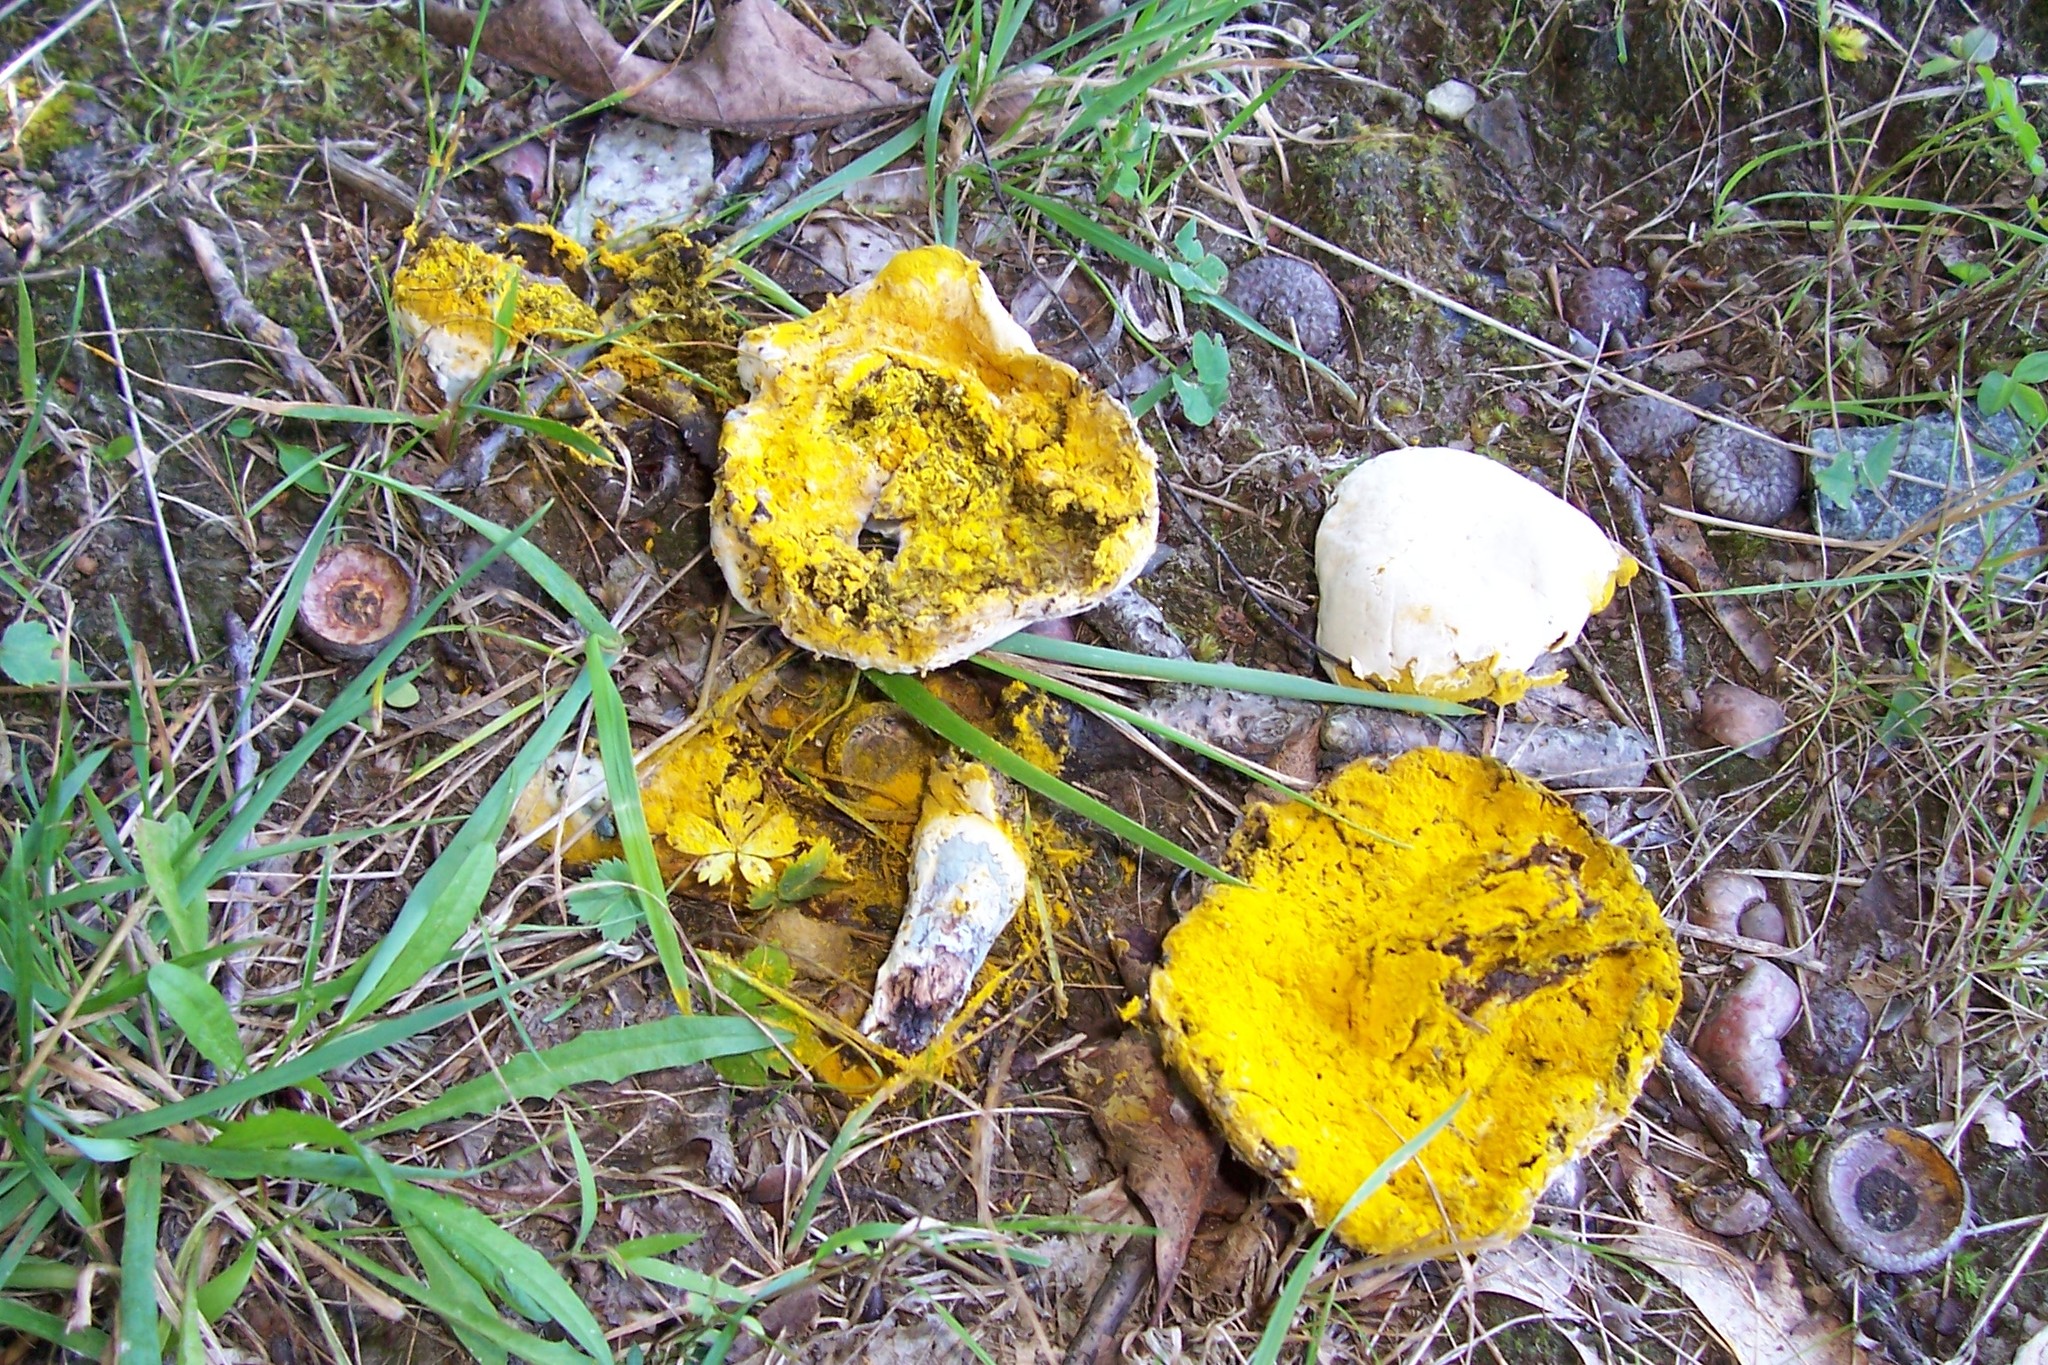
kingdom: Fungi
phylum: Ascomycota
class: Sordariomycetes
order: Hypocreales
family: Hypocreaceae
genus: Hypomyces
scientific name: Hypomyces chrysospermus
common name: Bolete mould
